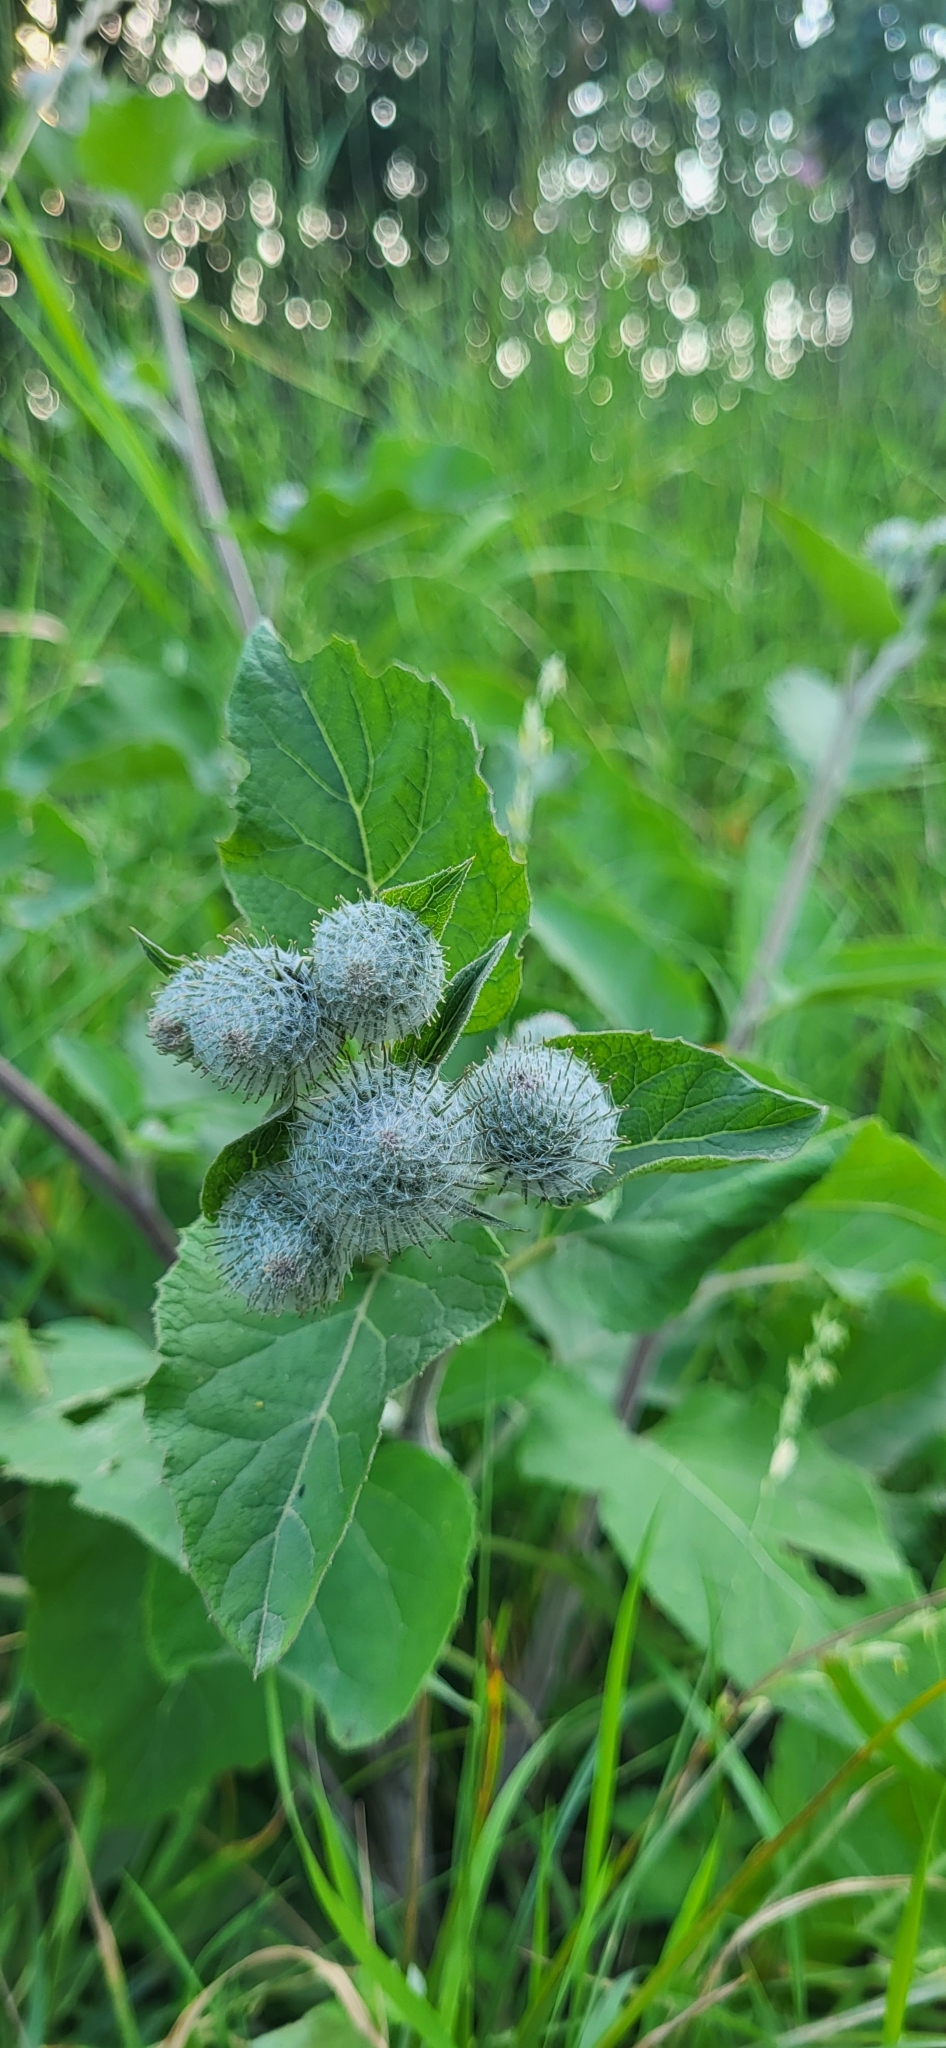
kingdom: Plantae
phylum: Tracheophyta
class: Magnoliopsida
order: Asterales
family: Asteraceae
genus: Arctium
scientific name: Arctium tomentosum
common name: Woolly burdock
